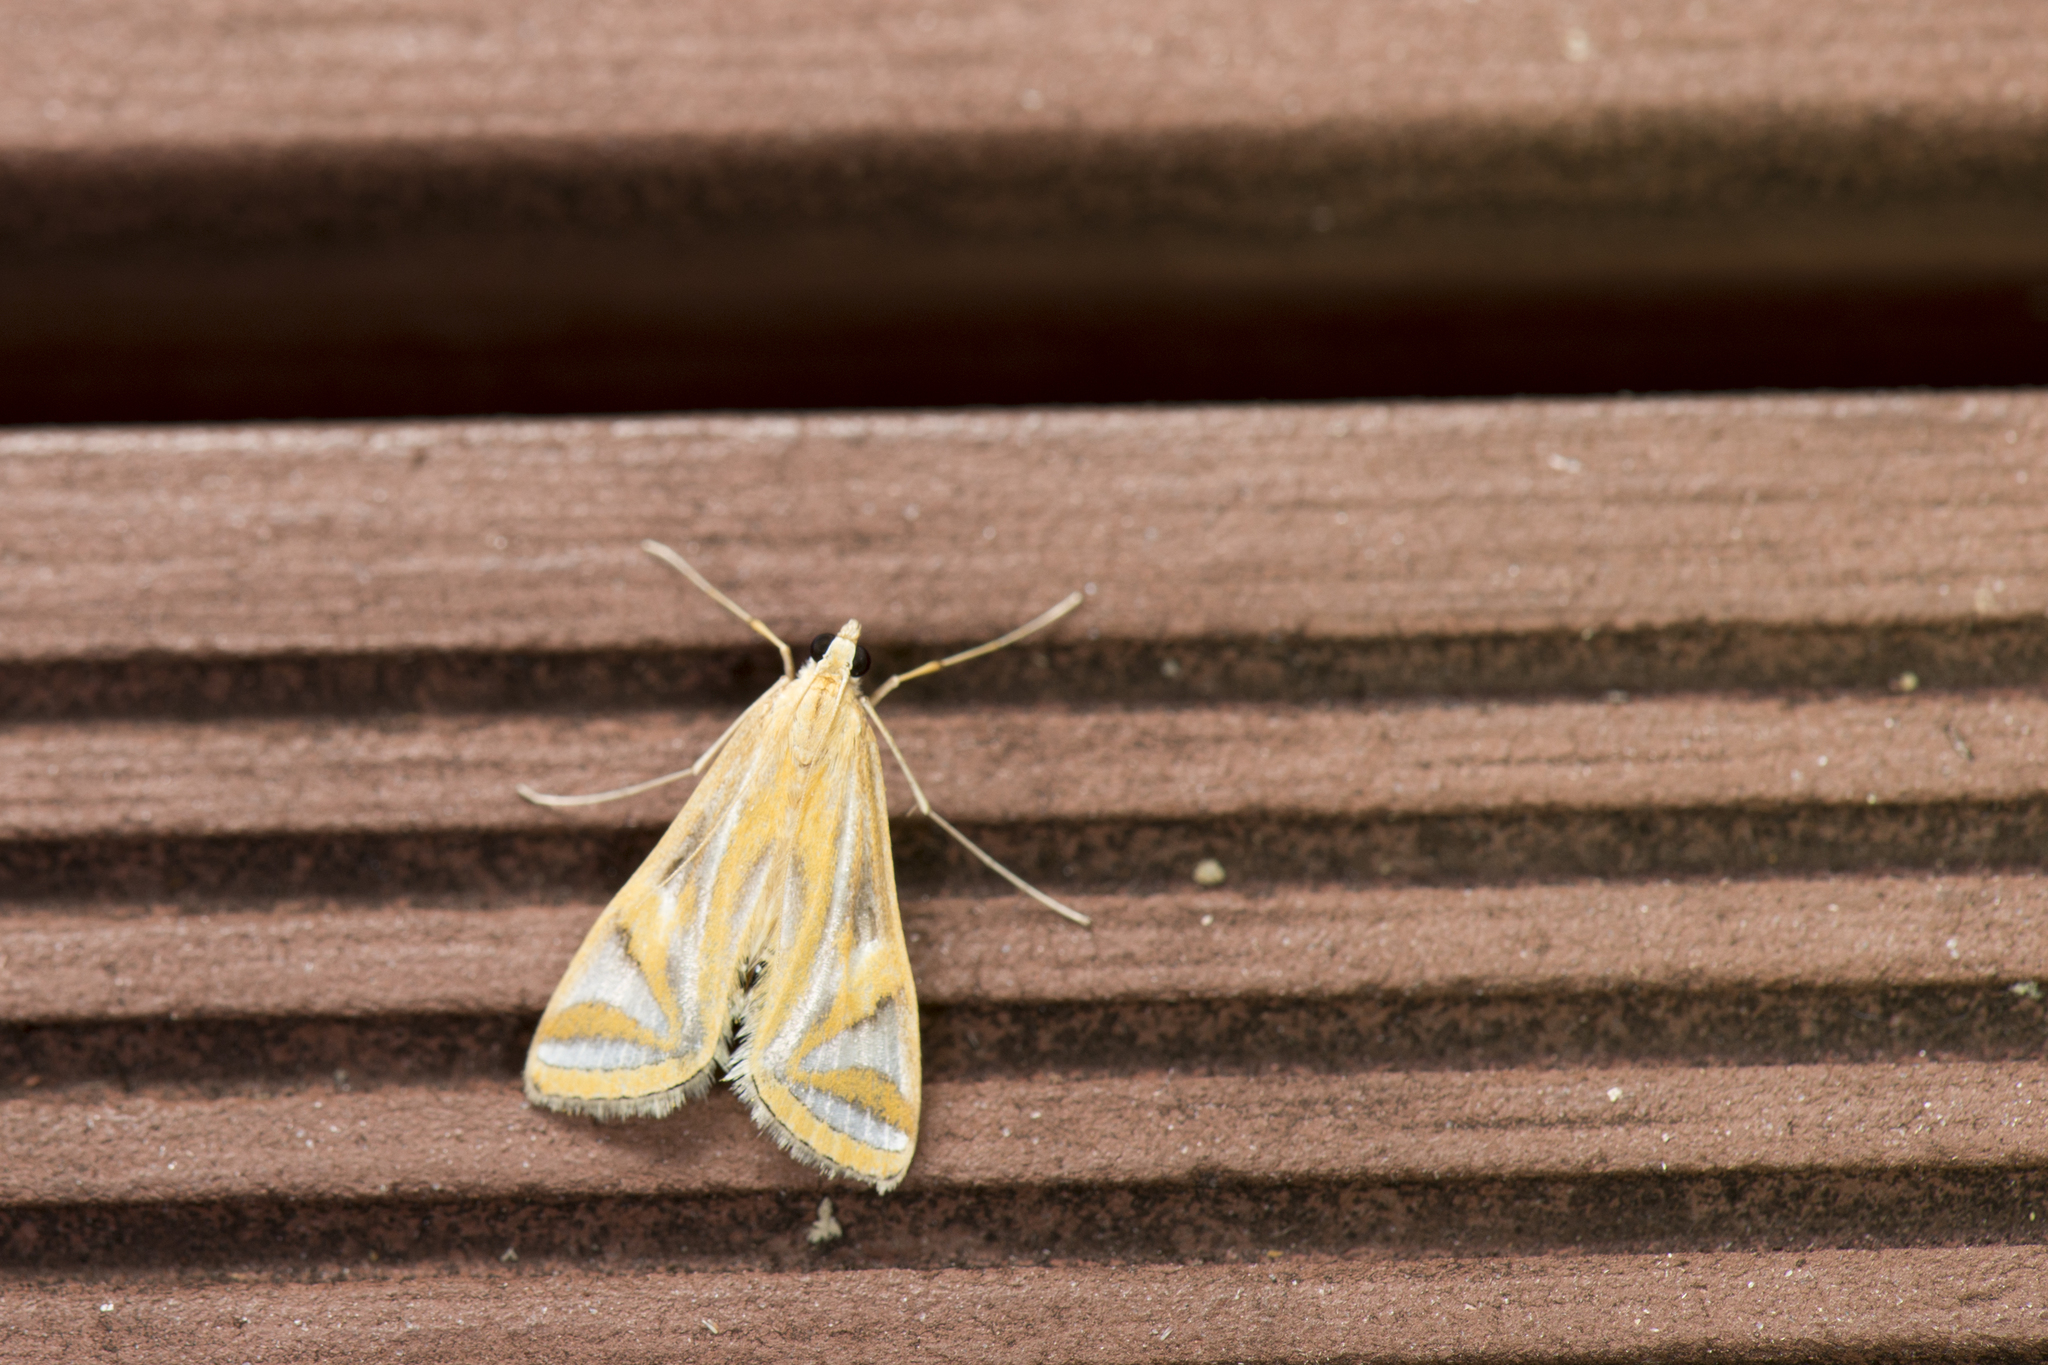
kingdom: Animalia
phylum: Arthropoda
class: Insecta
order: Lepidoptera
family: Crambidae
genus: Eoophyla
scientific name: Eoophyla conjunctalis
